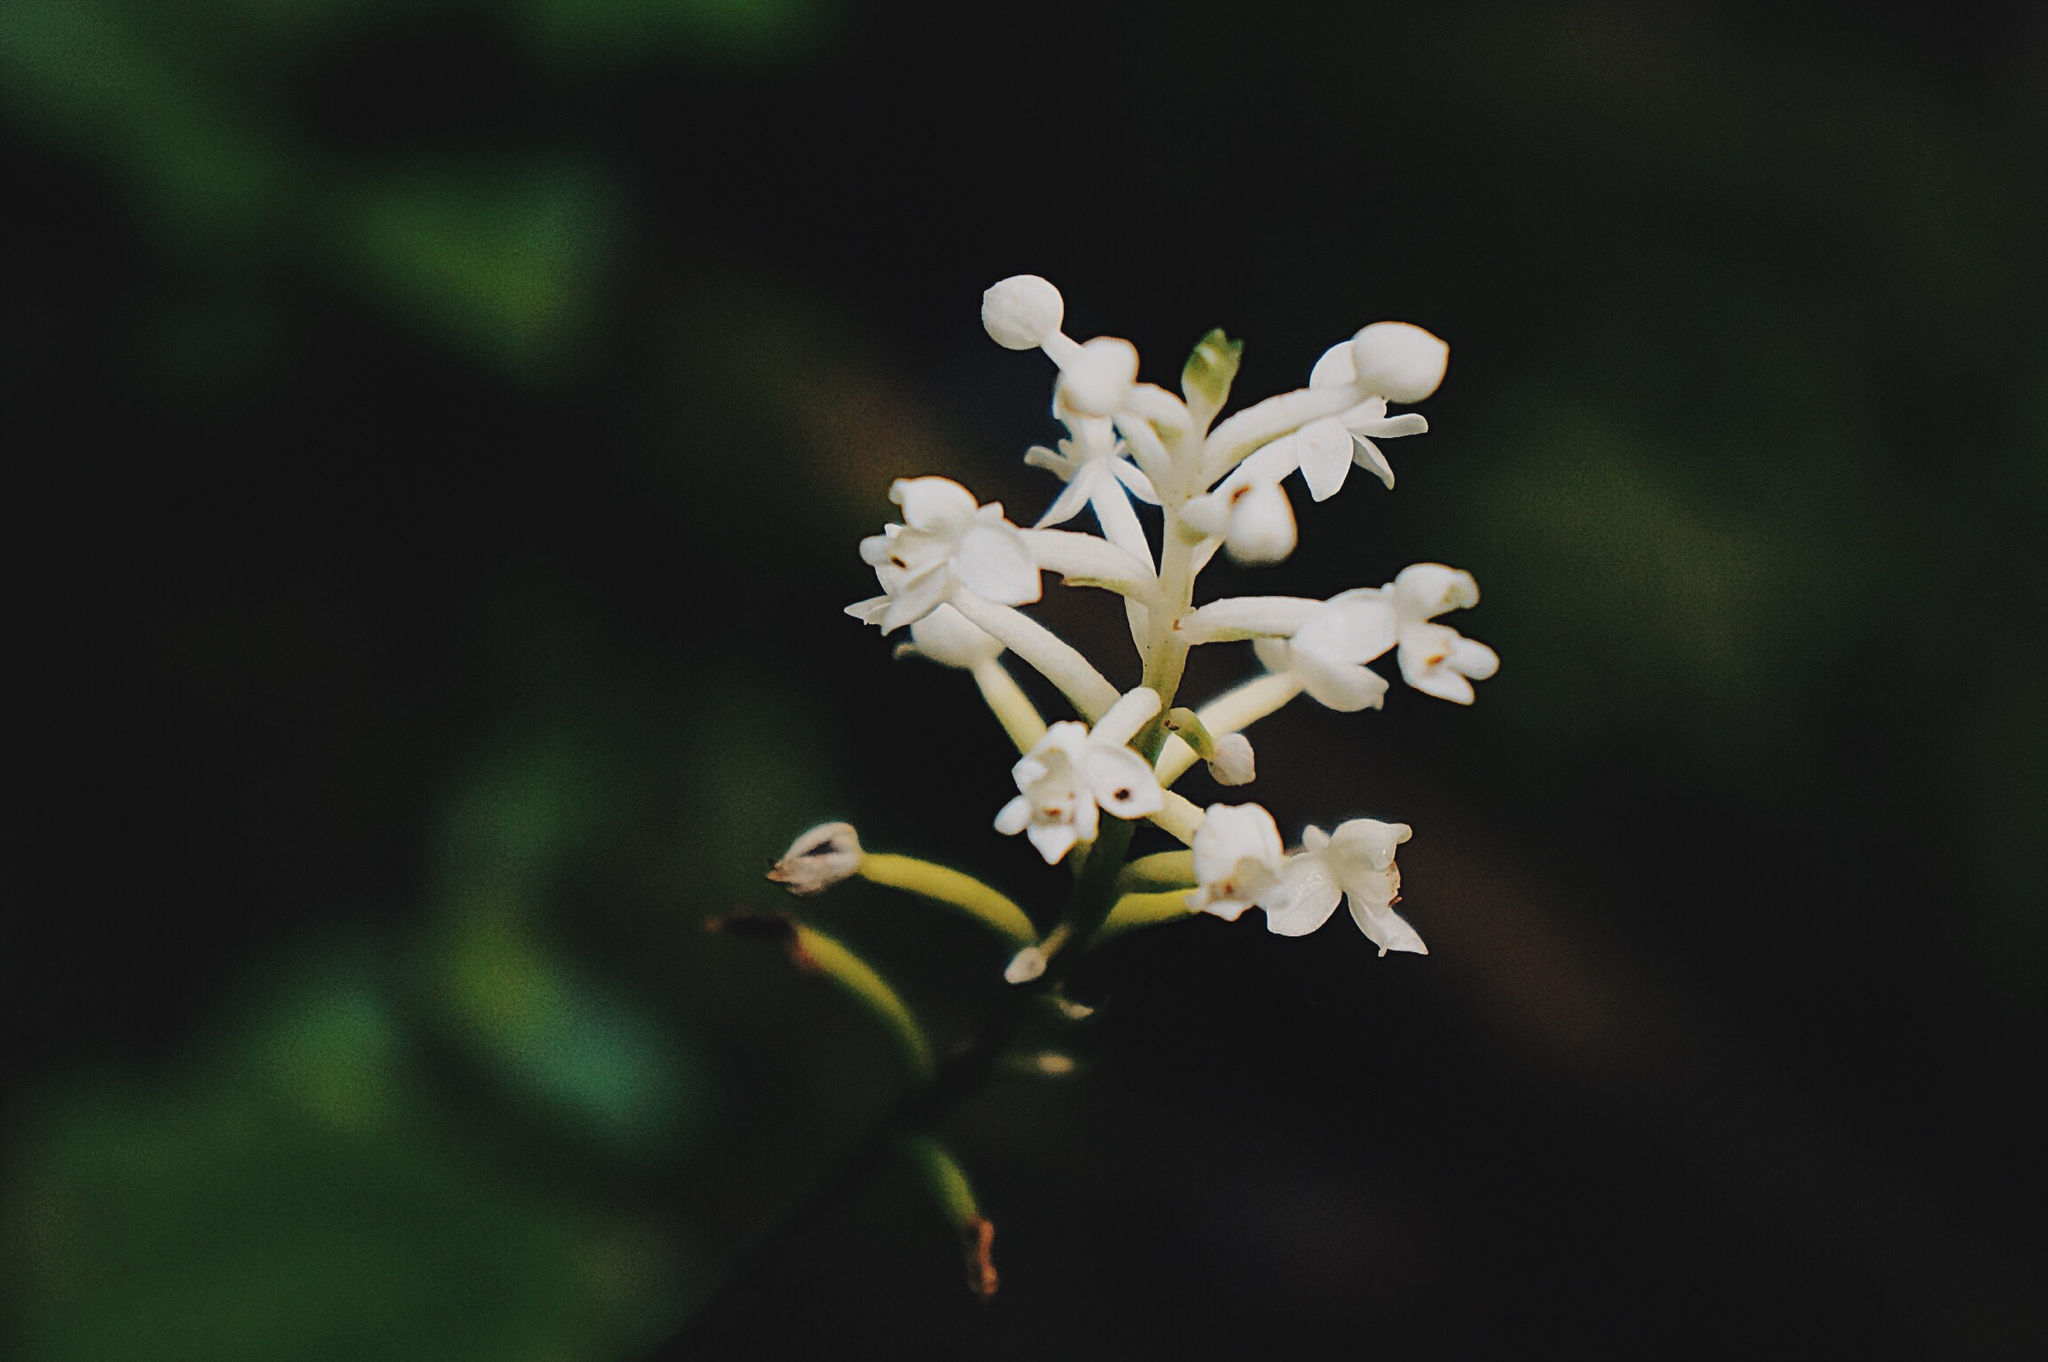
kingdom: Plantae
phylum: Tracheophyta
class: Liliopsida
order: Asparagales
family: Orchidaceae
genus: Cranichis
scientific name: Cranichis sylvatica
